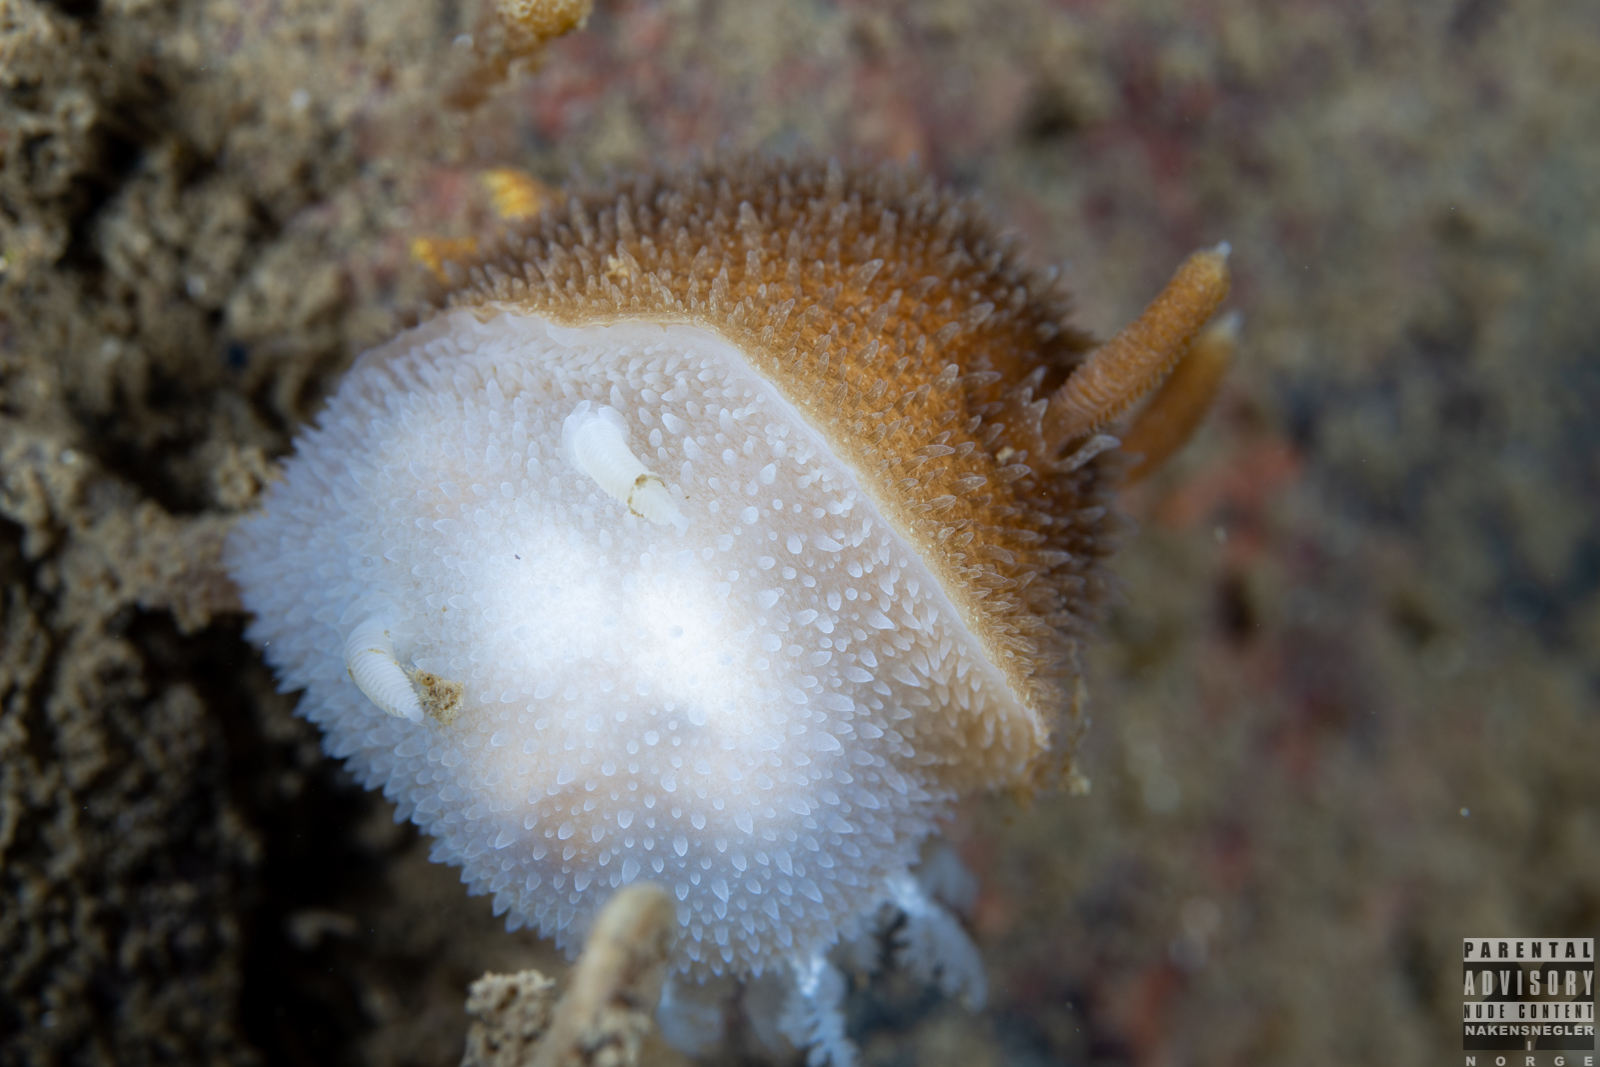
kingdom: Animalia
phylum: Mollusca
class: Gastropoda
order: Nudibranchia
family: Onchidorididae
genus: Acanthodoris
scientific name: Acanthodoris pilosa
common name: Hairy spiny doris
